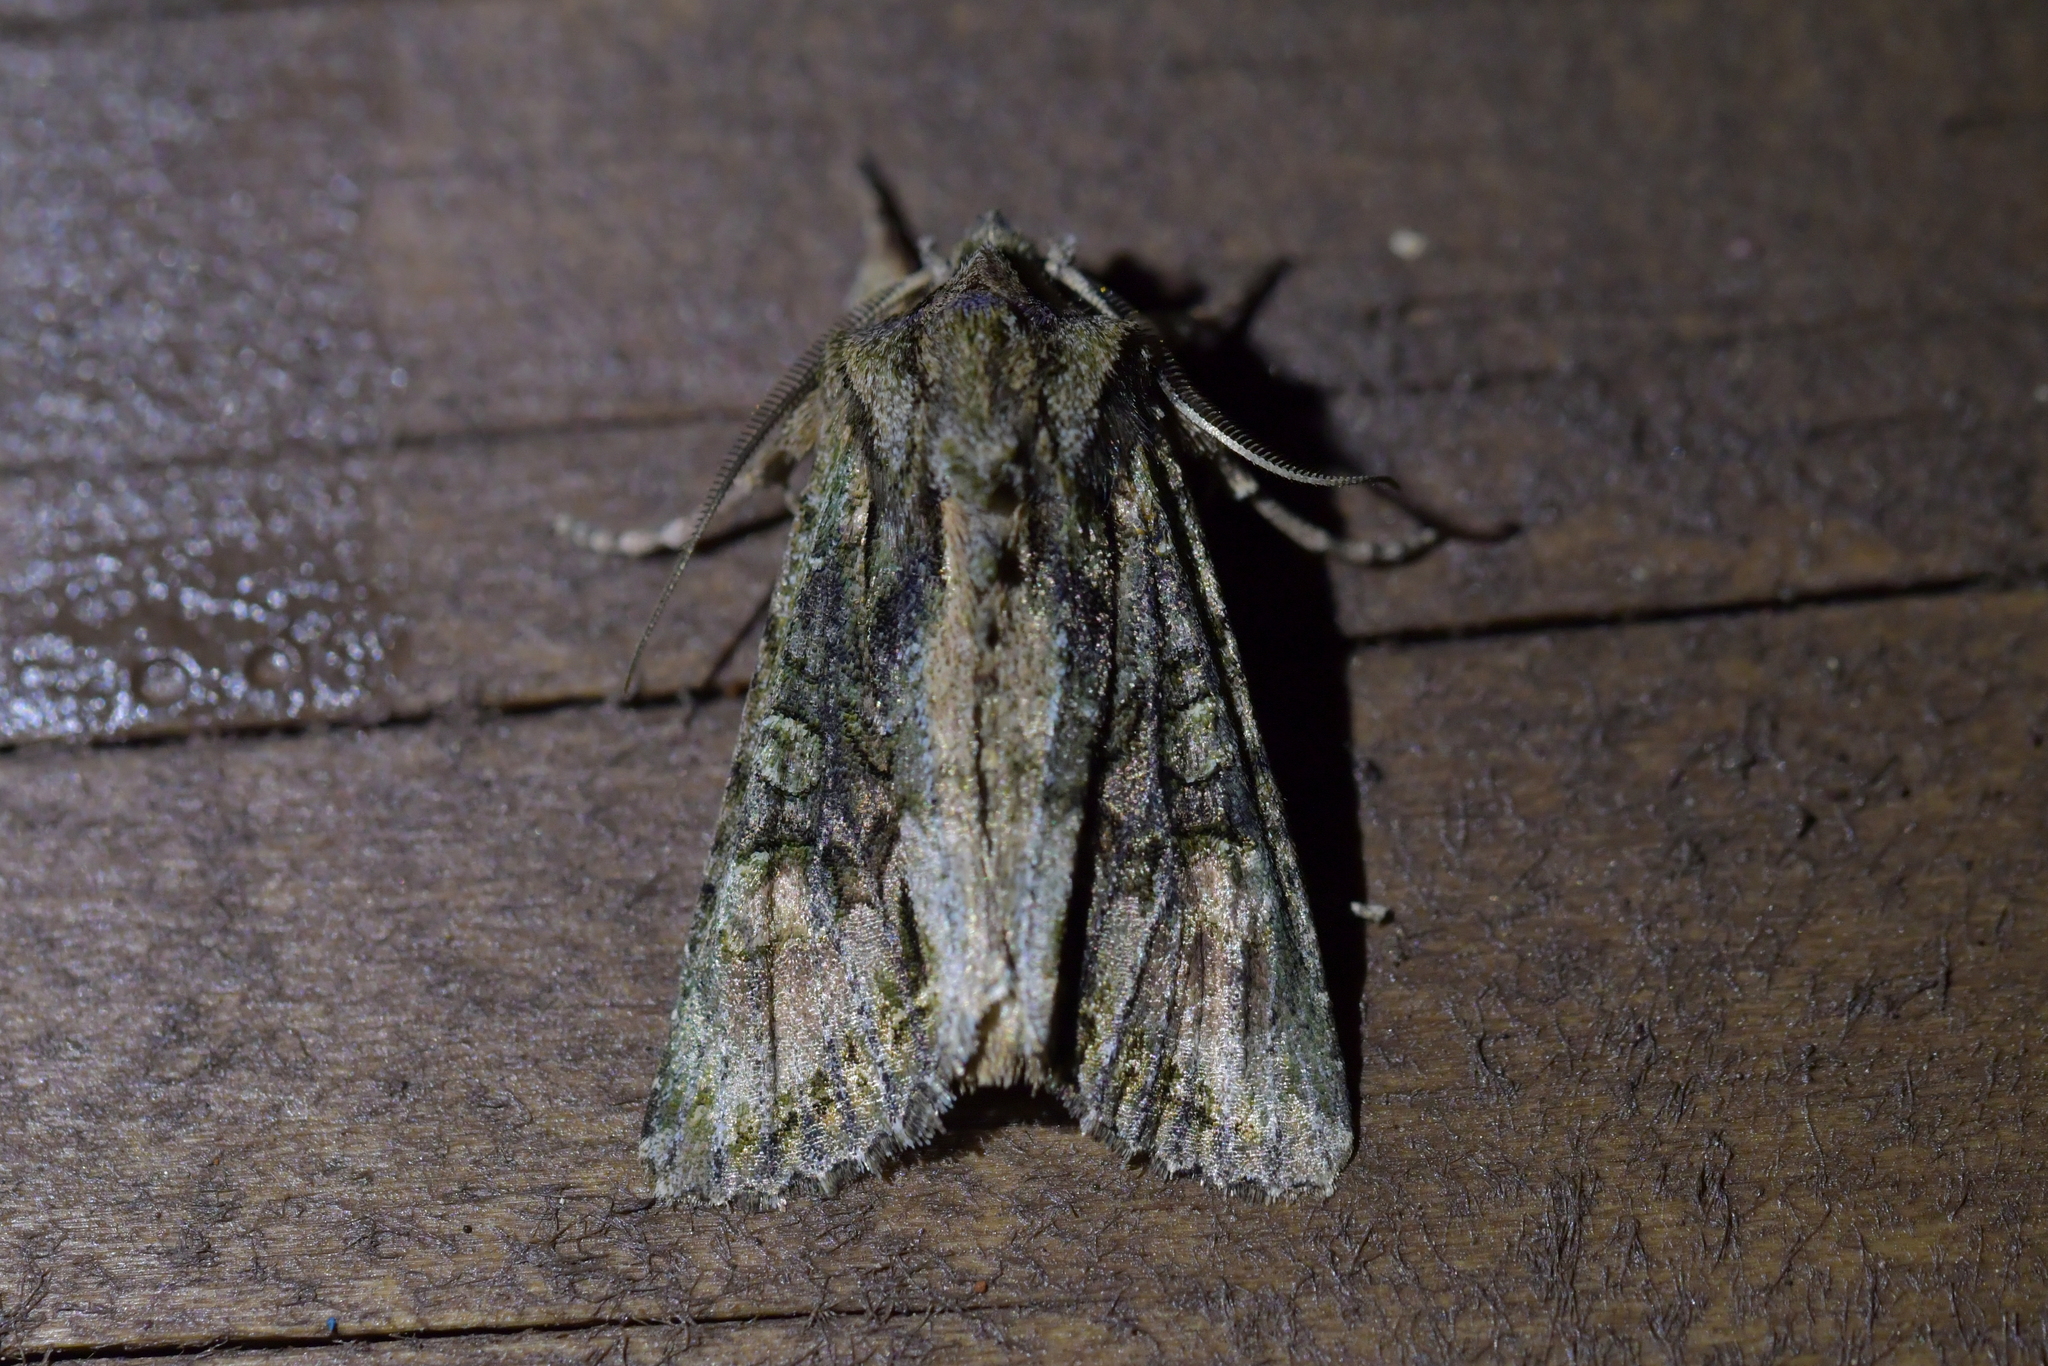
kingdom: Animalia
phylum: Arthropoda
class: Insecta
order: Lepidoptera
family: Noctuidae
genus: Ichneutica
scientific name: Ichneutica mutans
